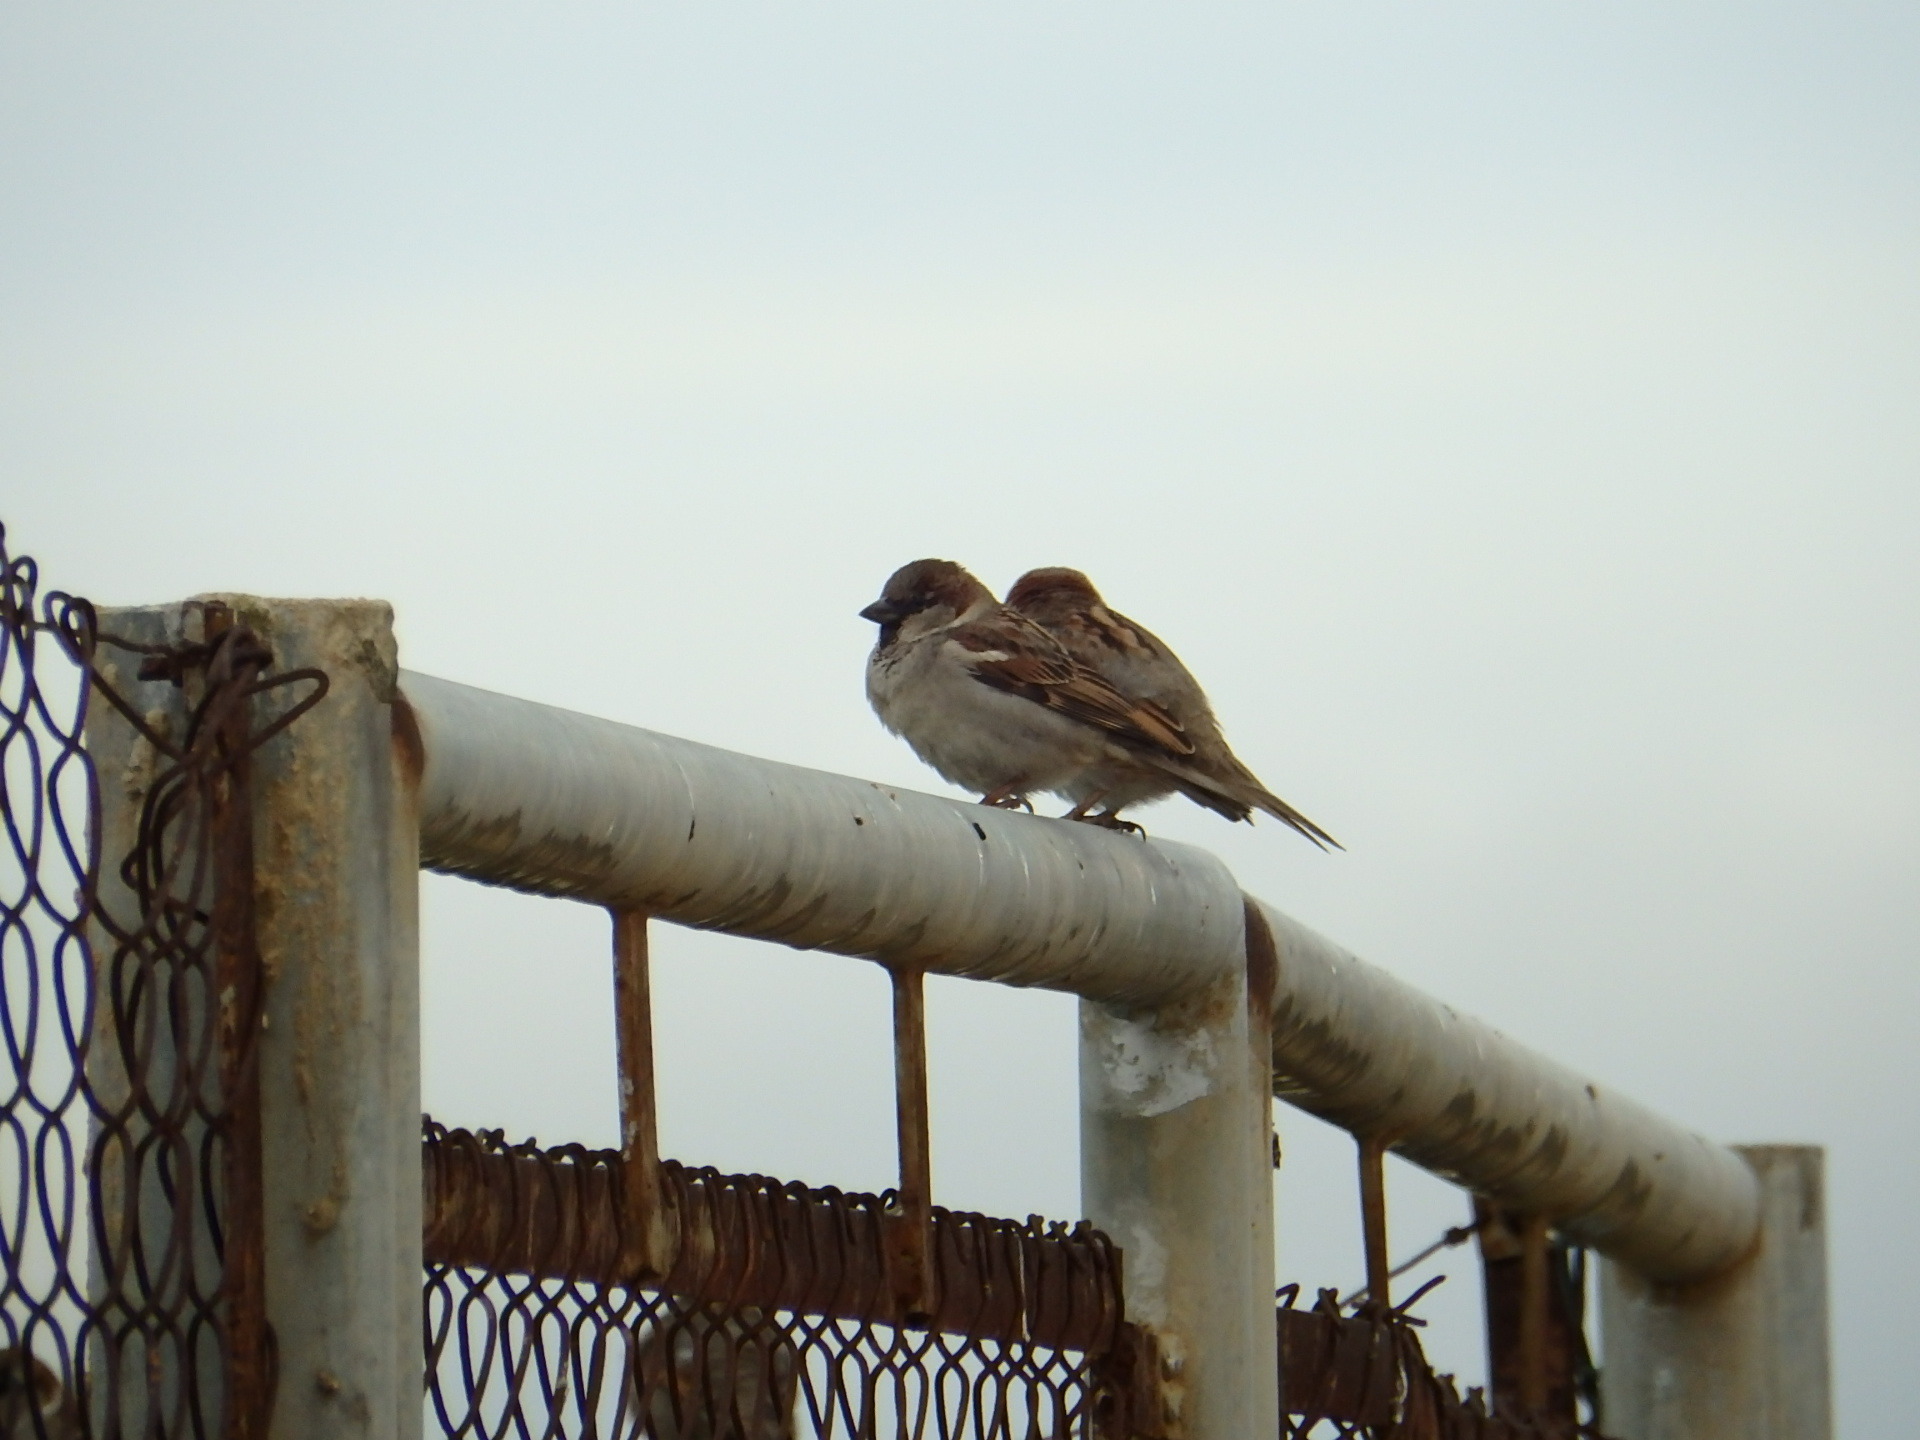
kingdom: Animalia
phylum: Chordata
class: Aves
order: Passeriformes
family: Passeridae
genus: Passer
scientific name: Passer domesticus
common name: House sparrow
